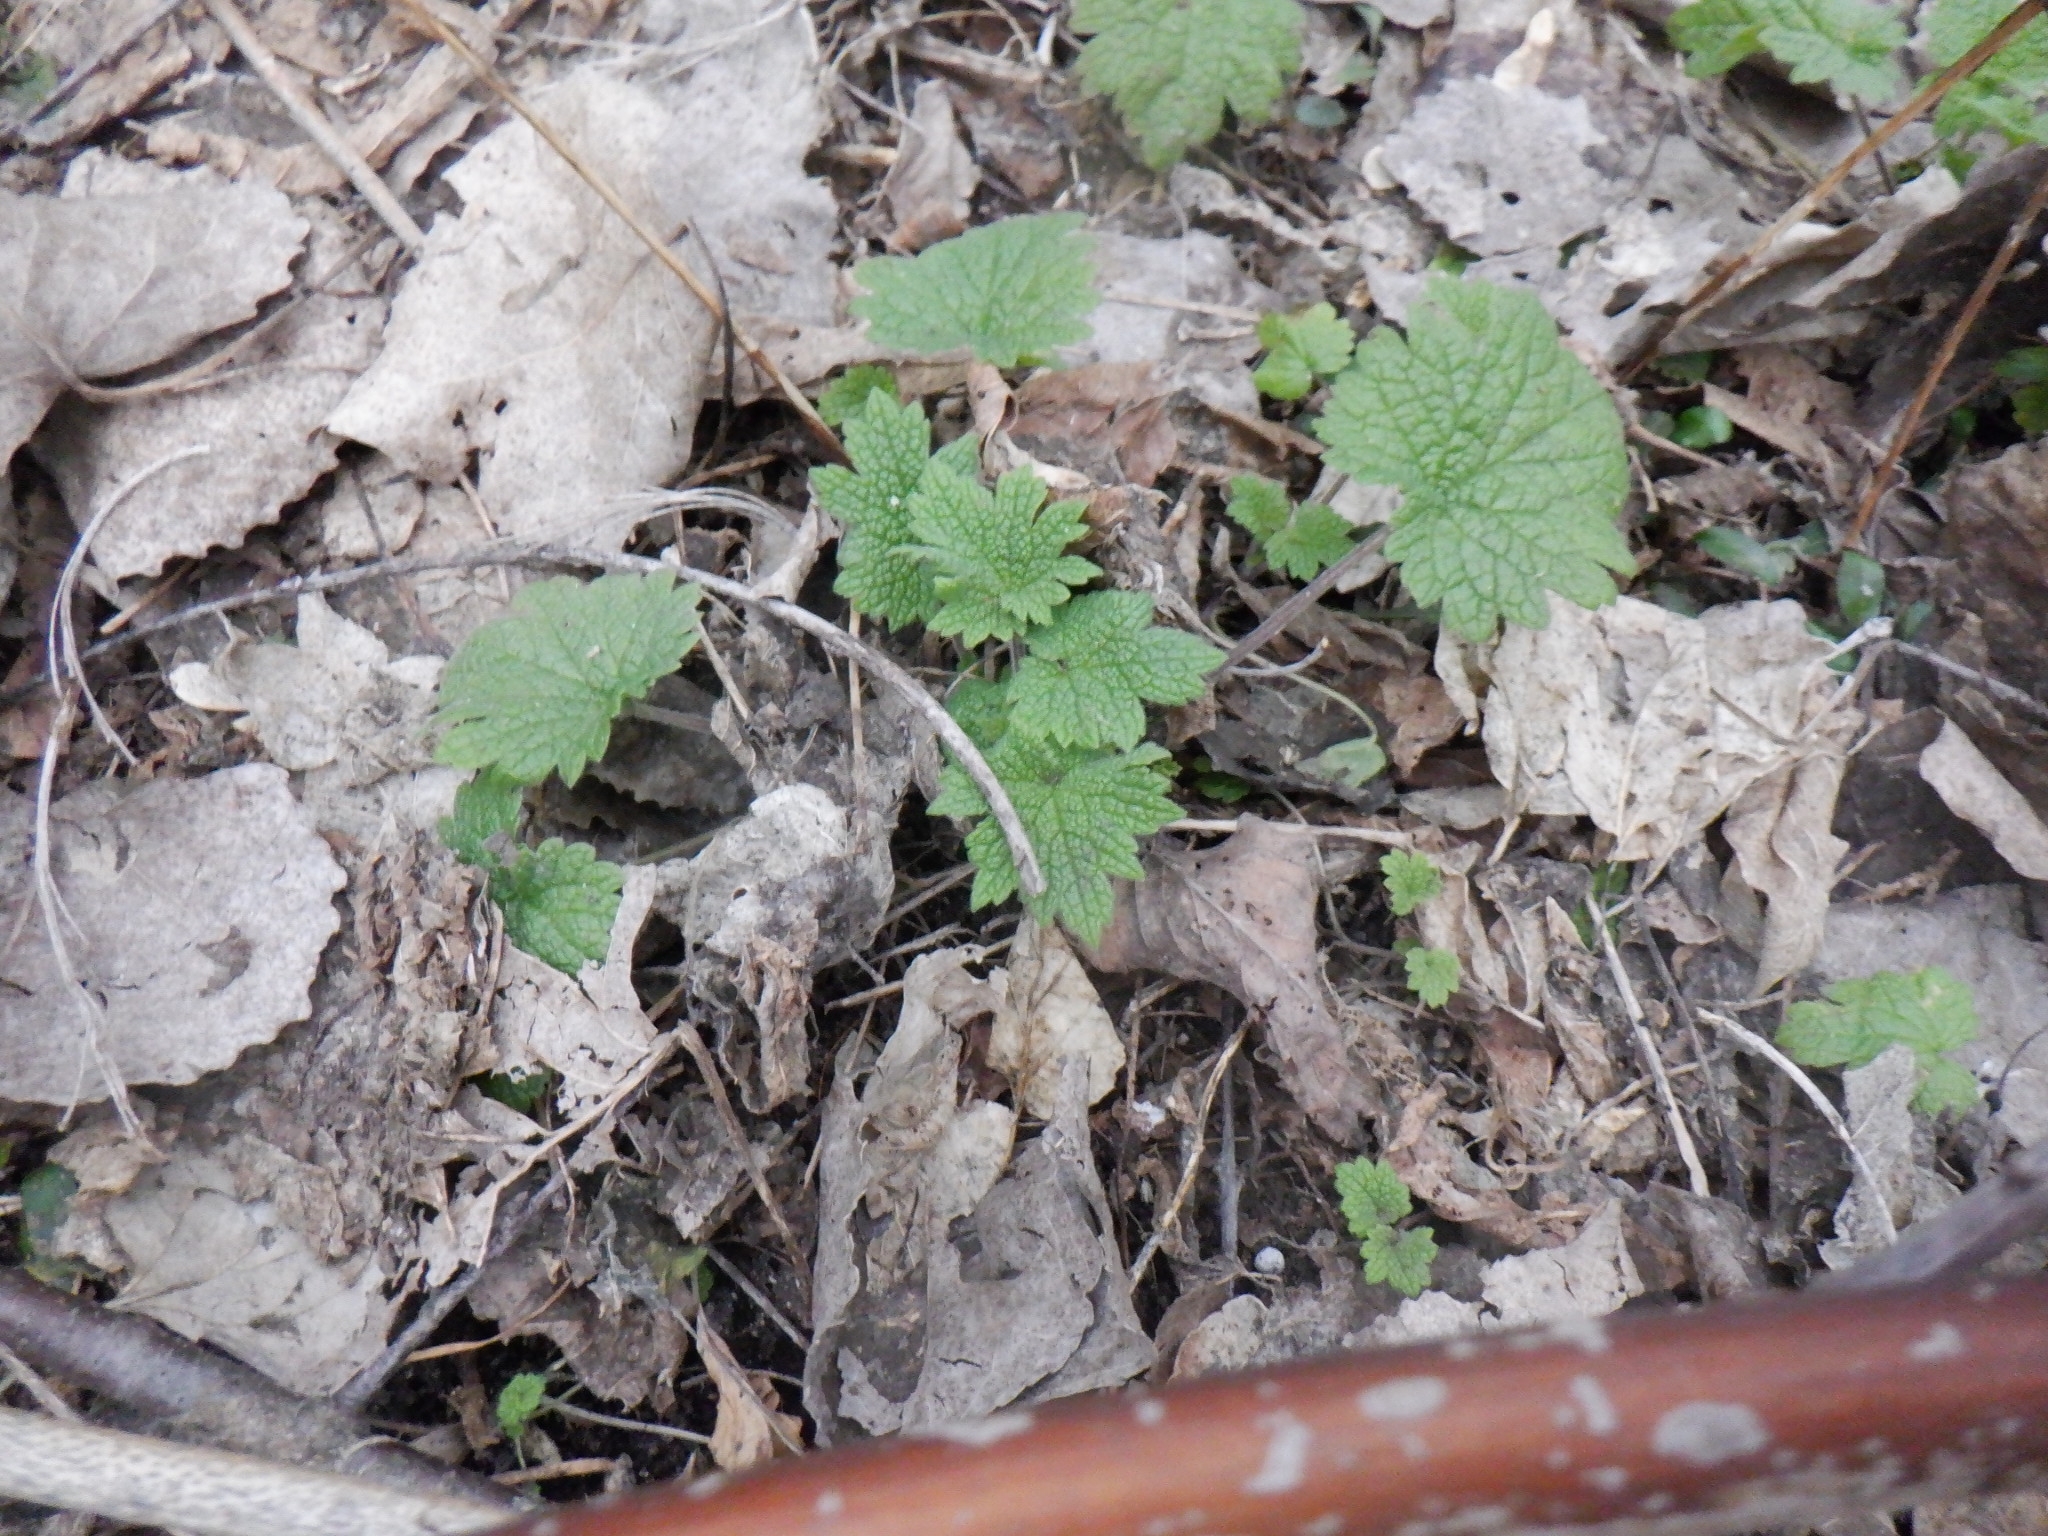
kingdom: Plantae
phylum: Tracheophyta
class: Magnoliopsida
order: Lamiales
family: Lamiaceae
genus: Leonurus
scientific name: Leonurus cardiaca
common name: Motherwort
